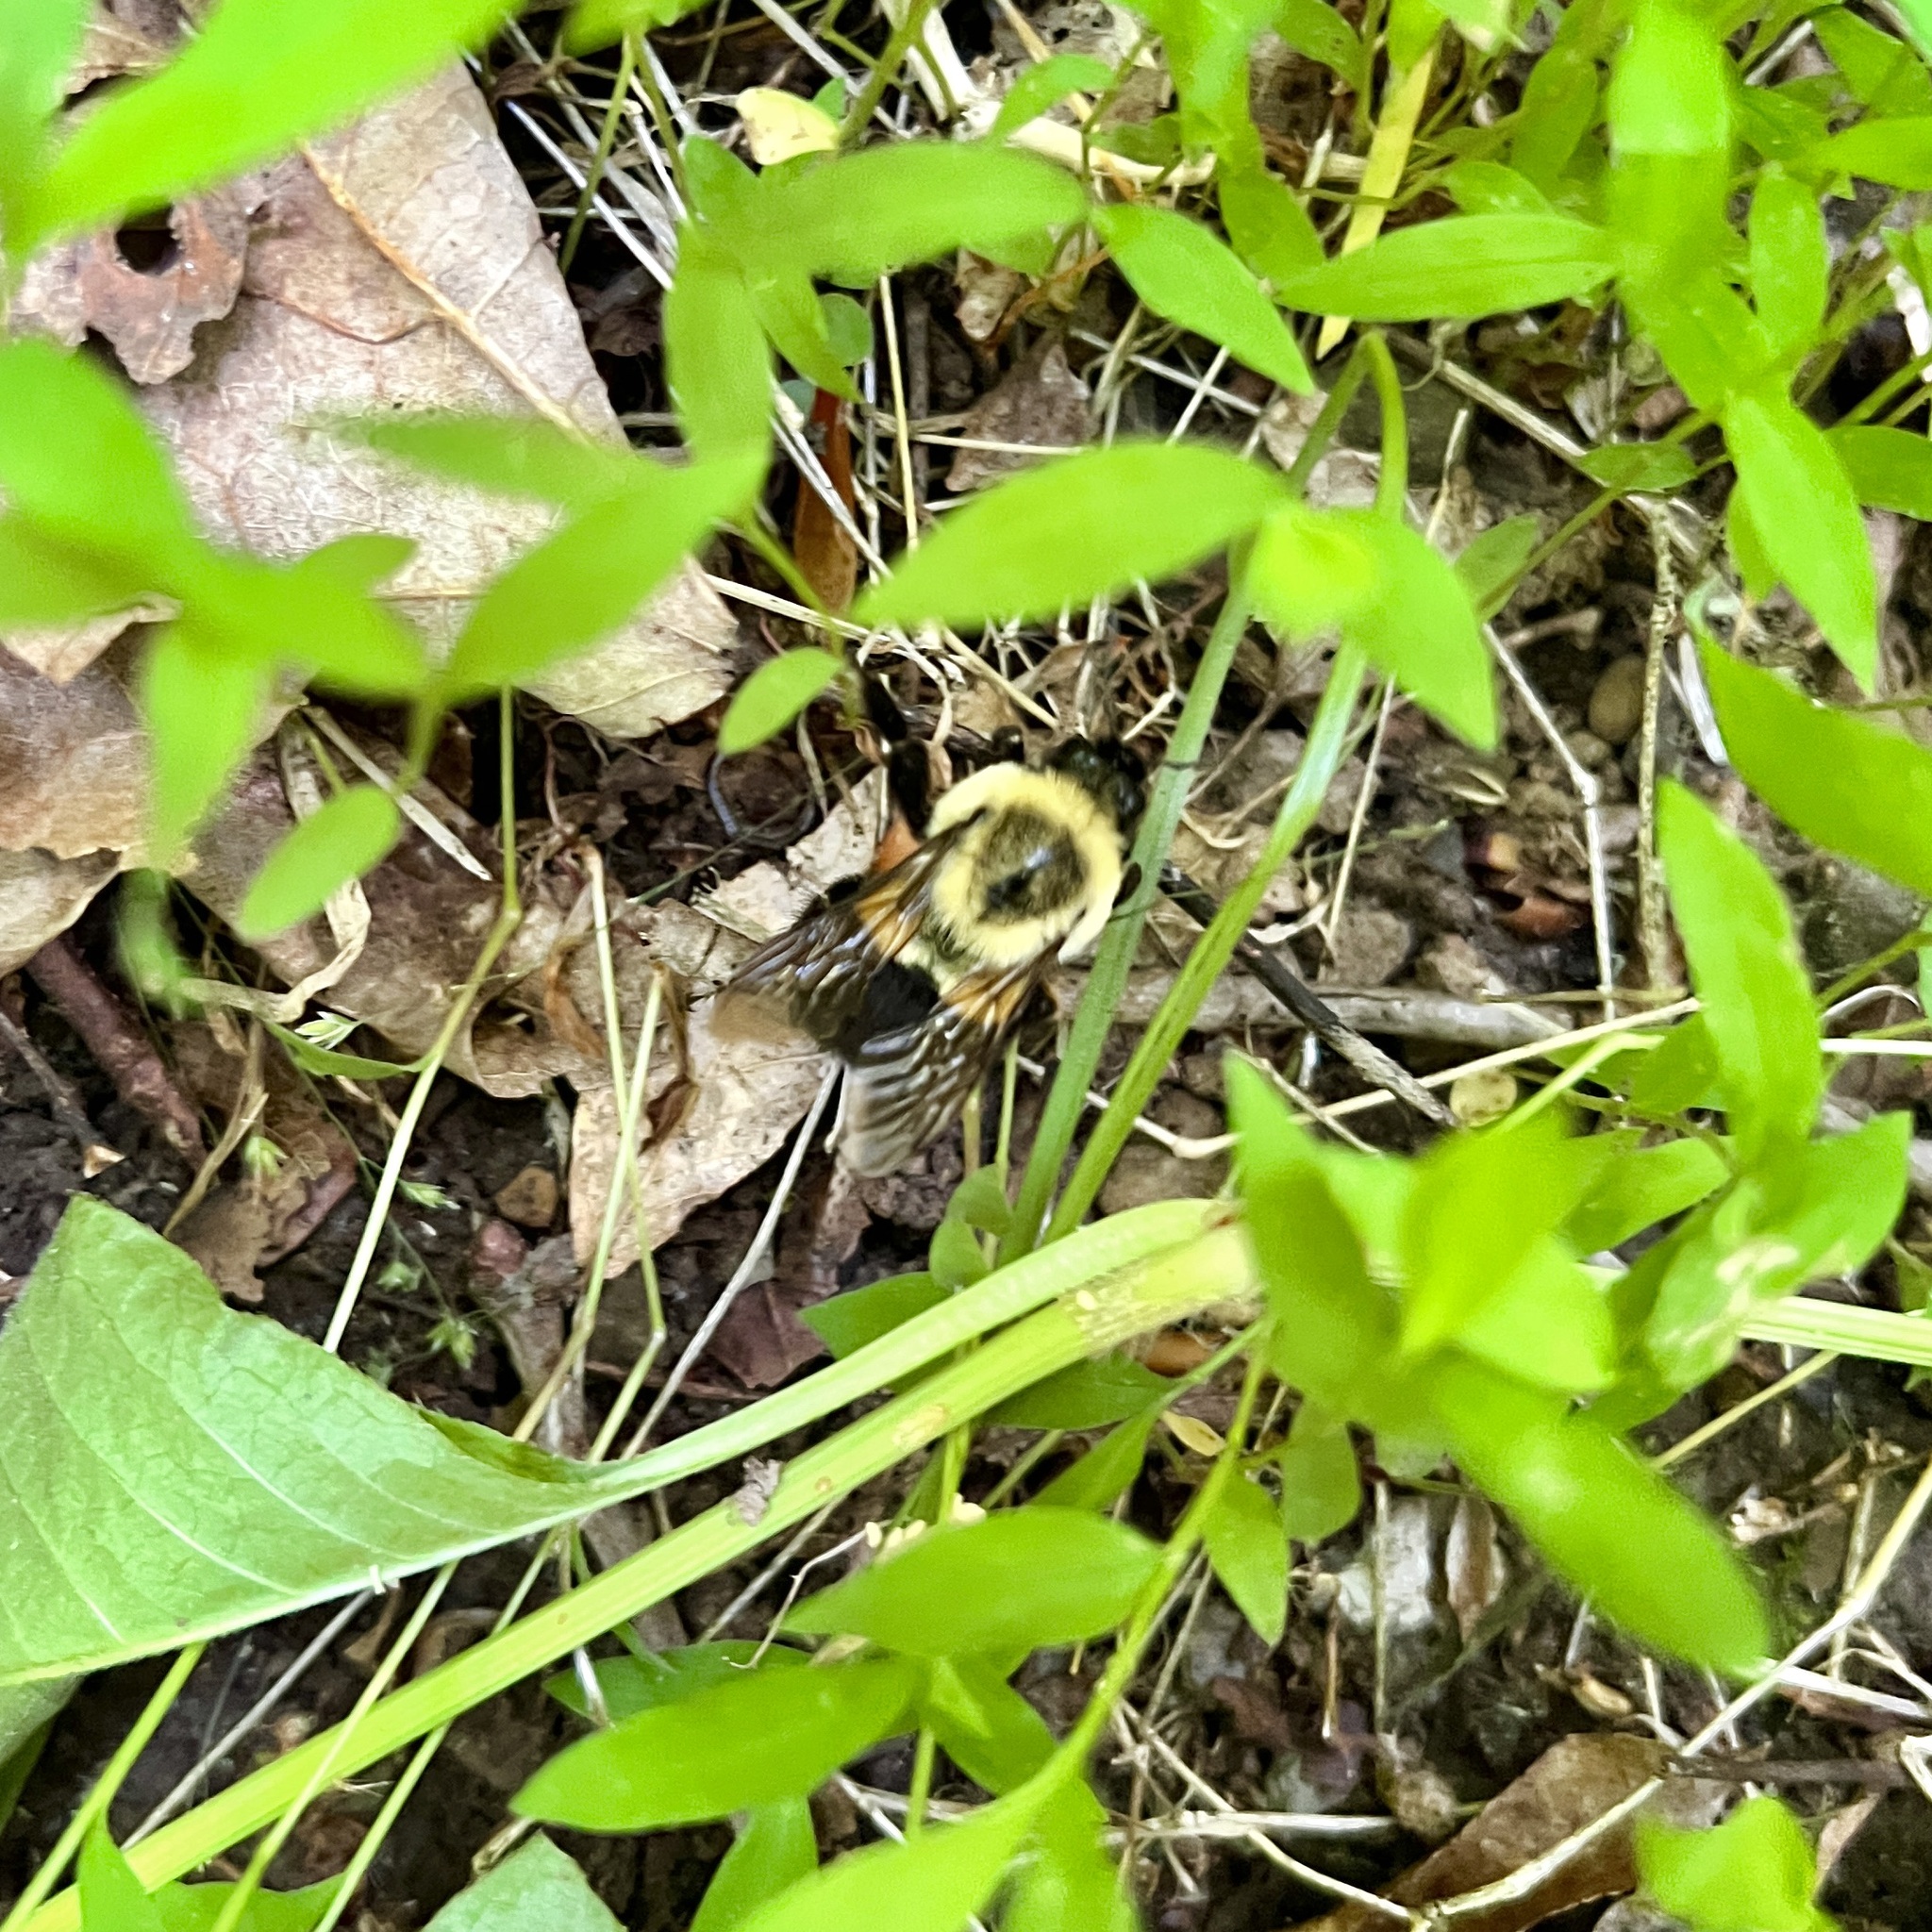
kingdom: Animalia
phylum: Arthropoda
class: Insecta
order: Hymenoptera
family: Apidae
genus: Bombus
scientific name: Bombus impatiens
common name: Common eastern bumble bee
